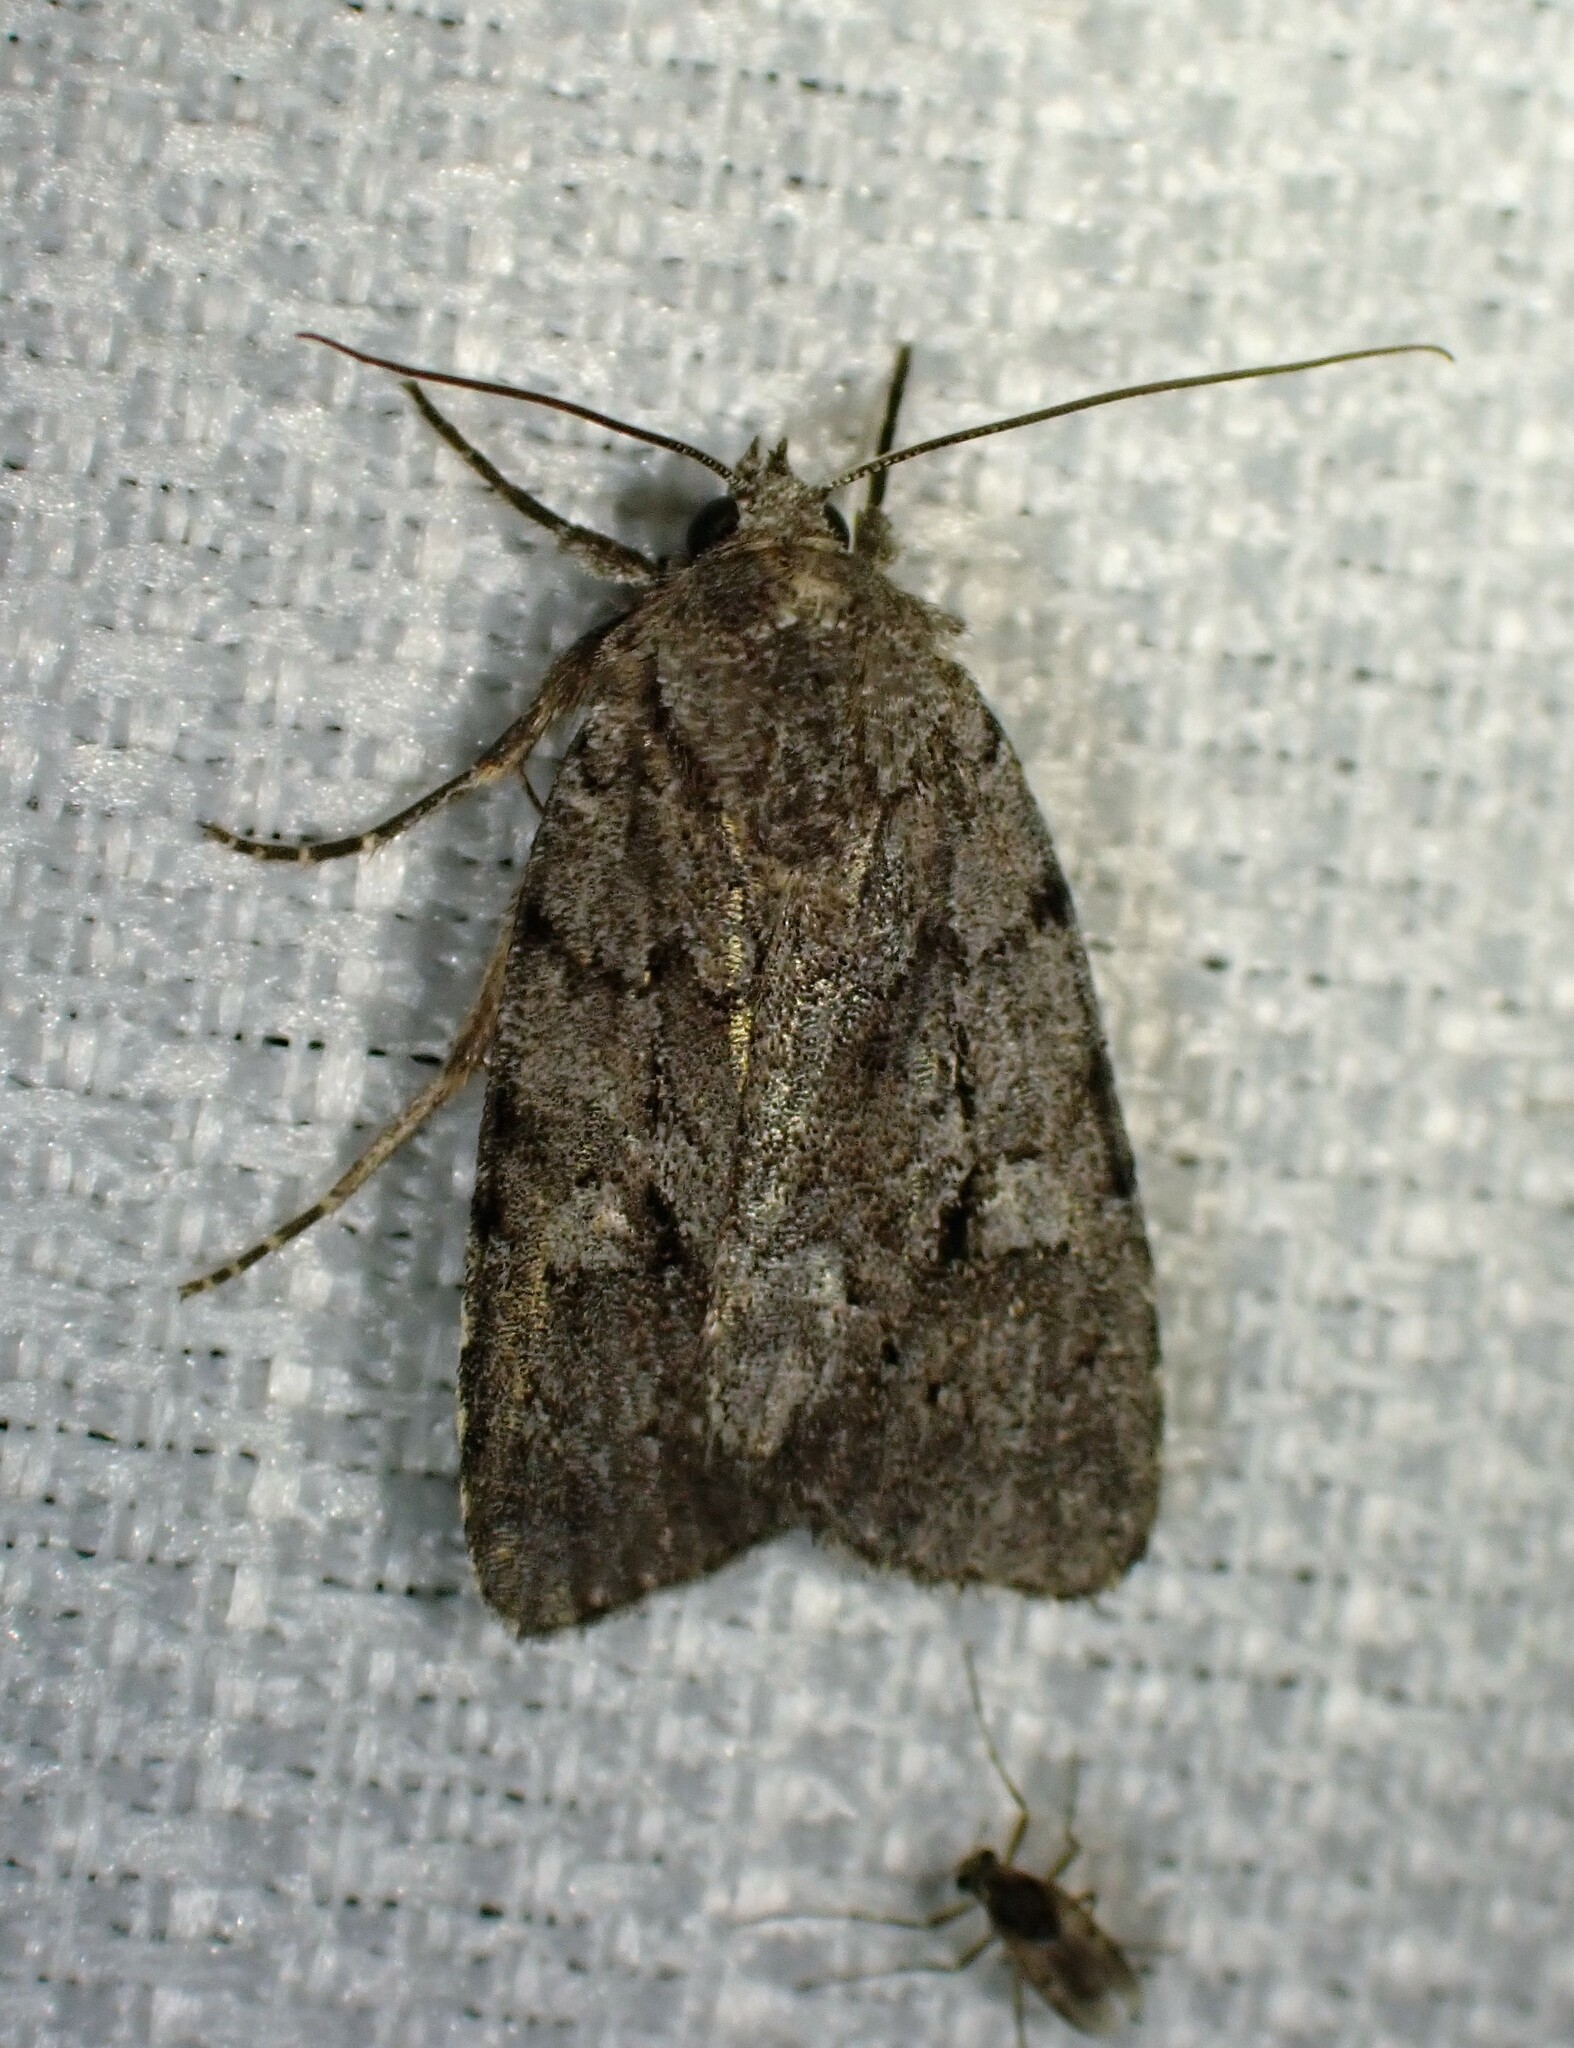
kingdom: Animalia
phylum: Arthropoda
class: Insecta
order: Lepidoptera
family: Noctuidae
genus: Sympistis
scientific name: Sympistis dentata
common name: Blueberry sallow
